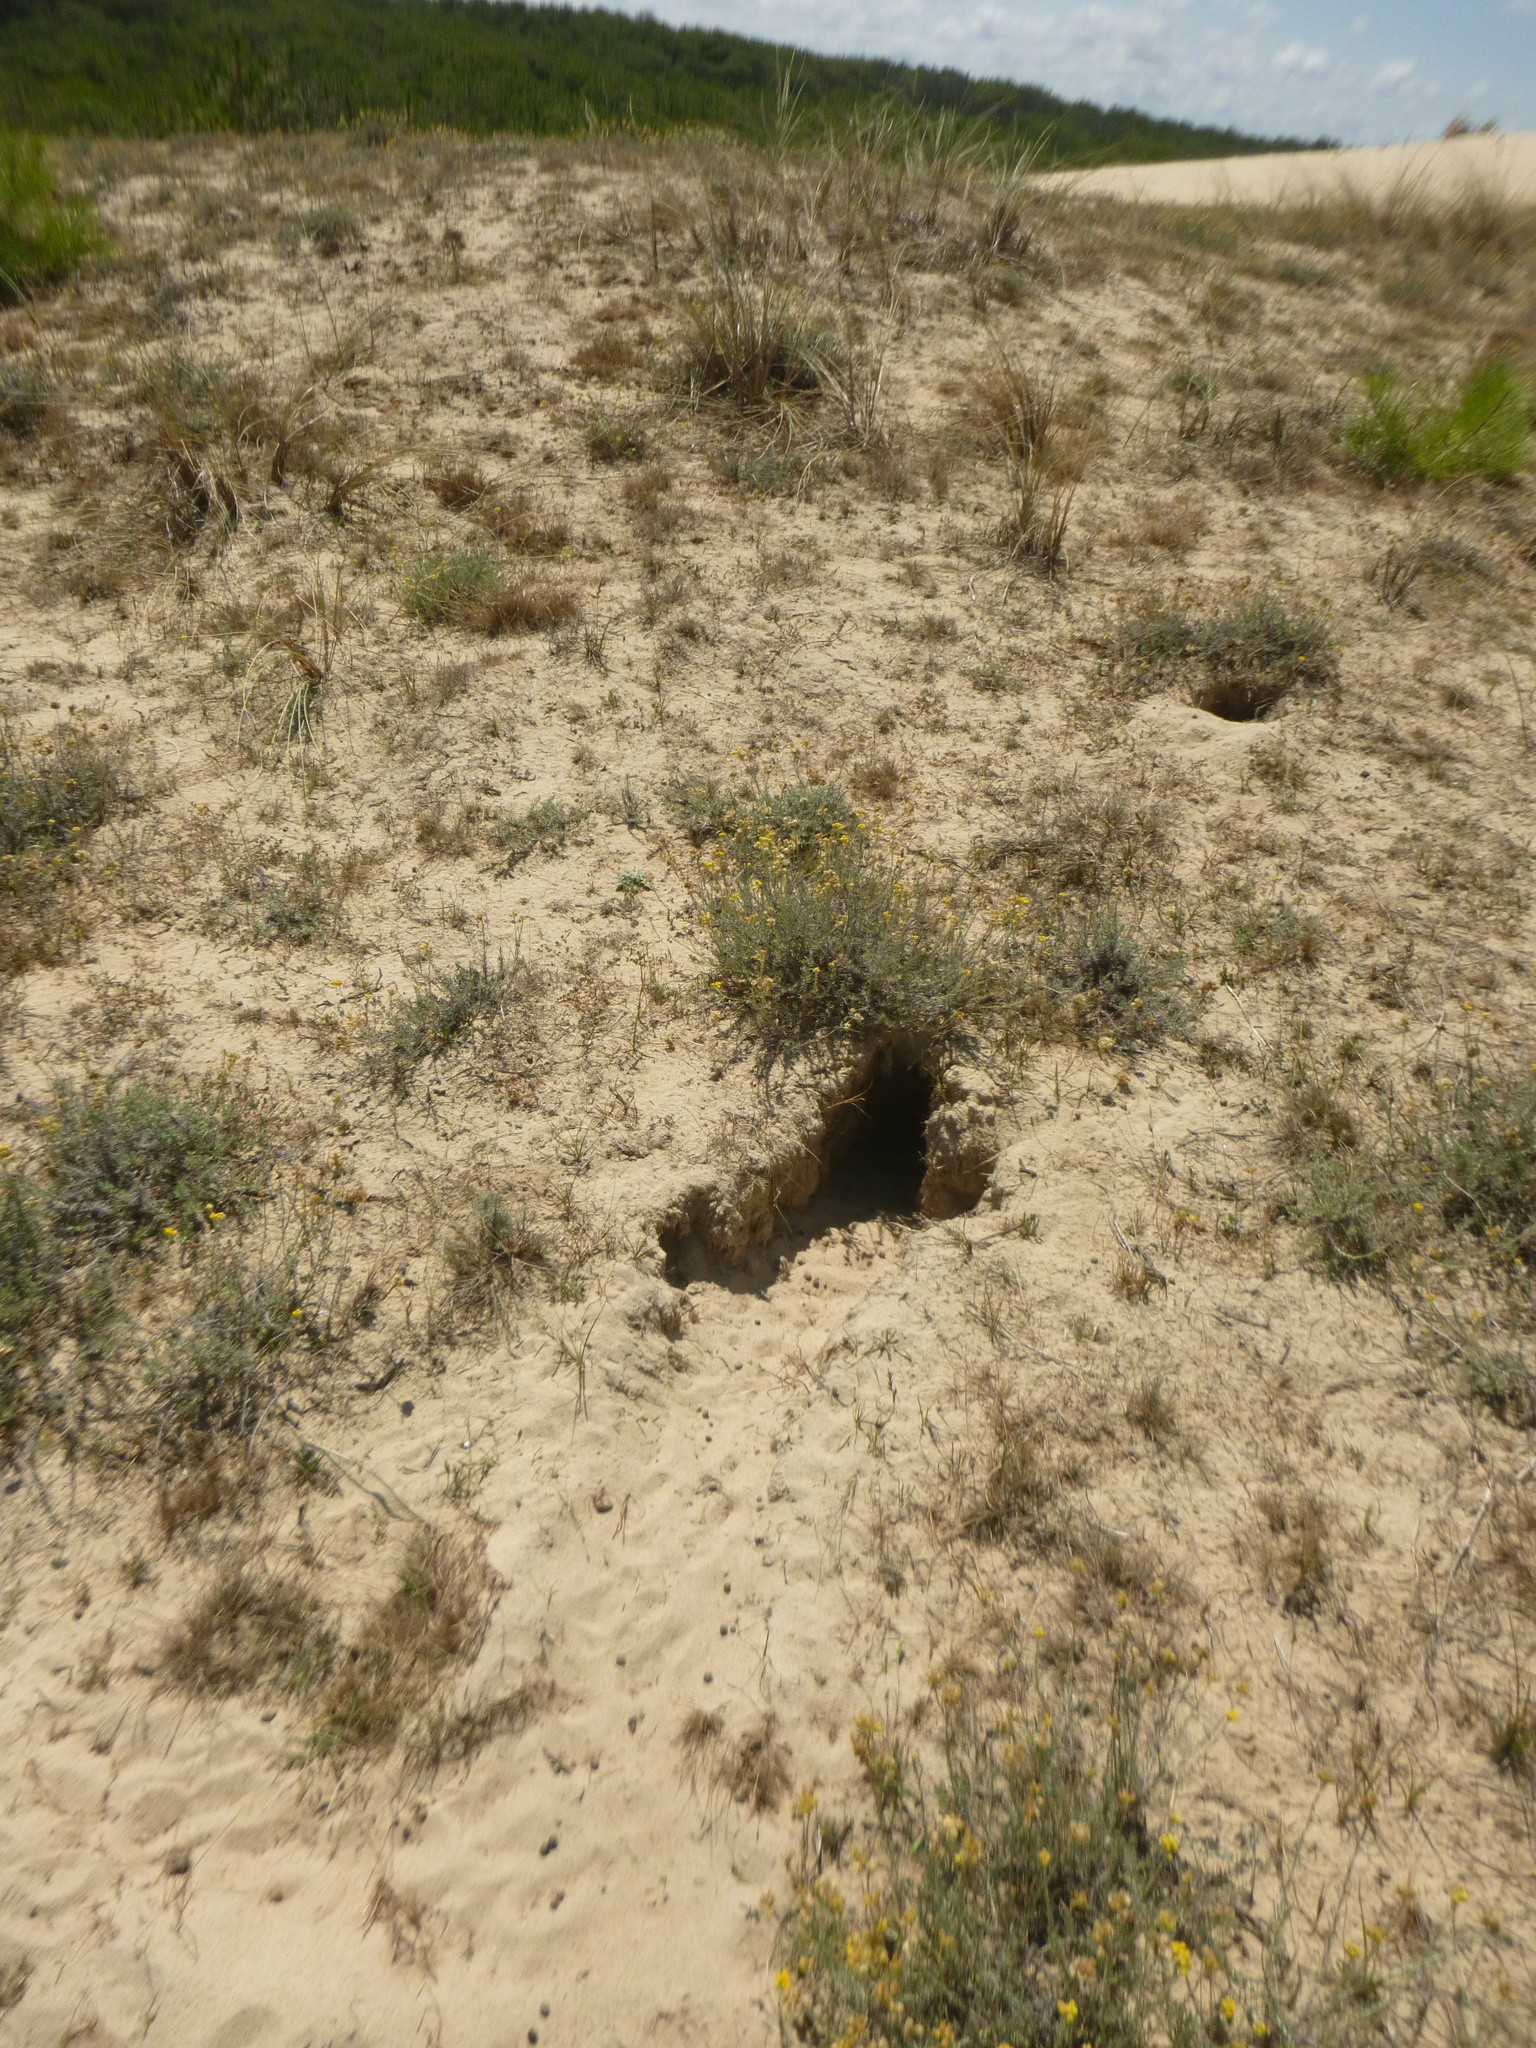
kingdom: Animalia
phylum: Chordata
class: Mammalia
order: Lagomorpha
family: Leporidae
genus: Oryctolagus
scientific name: Oryctolagus cuniculus
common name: European rabbit
